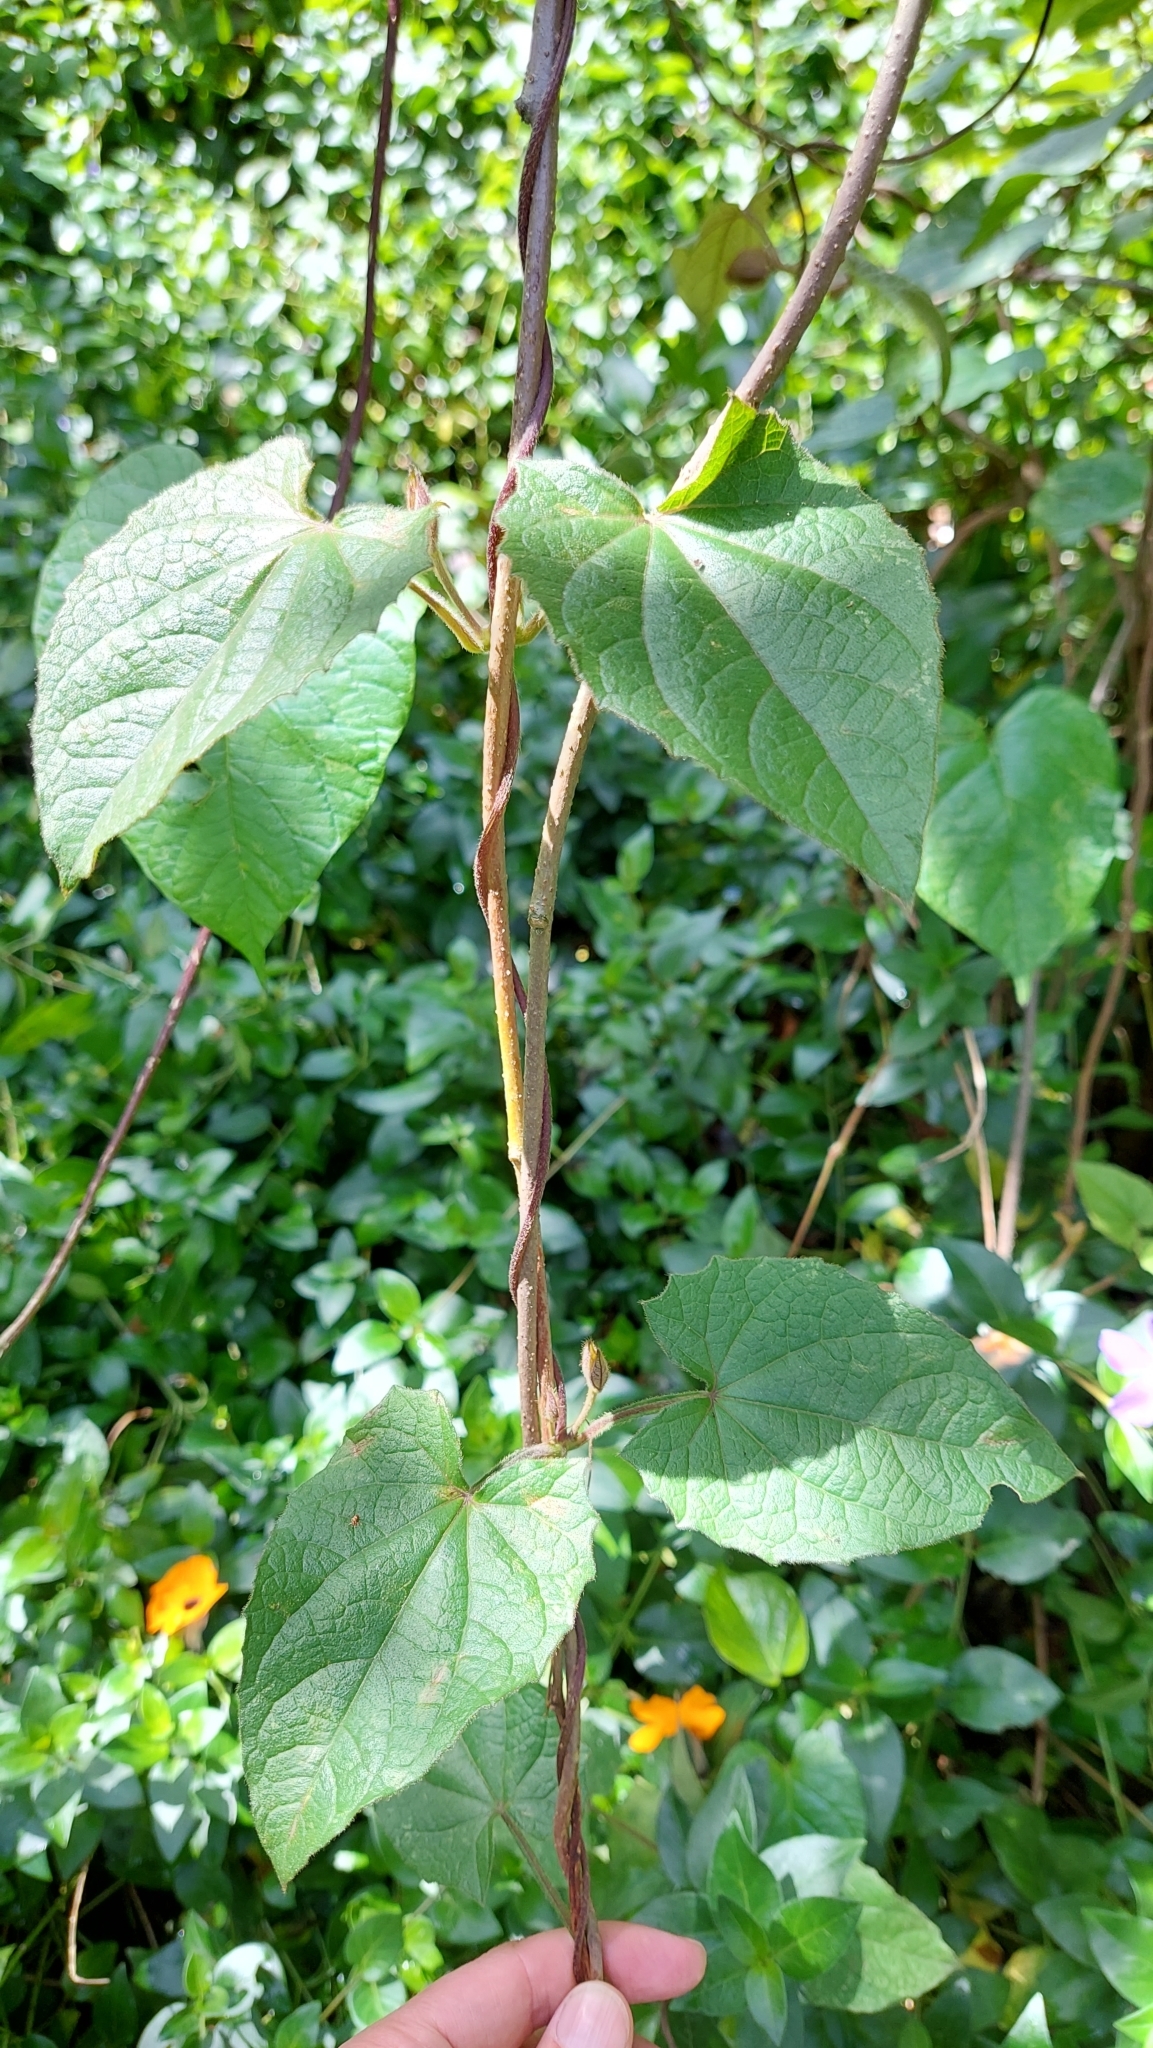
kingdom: Plantae
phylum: Tracheophyta
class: Magnoliopsida
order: Lamiales
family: Acanthaceae
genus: Thunbergia
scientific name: Thunbergia alata
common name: Blackeyed susan vine
